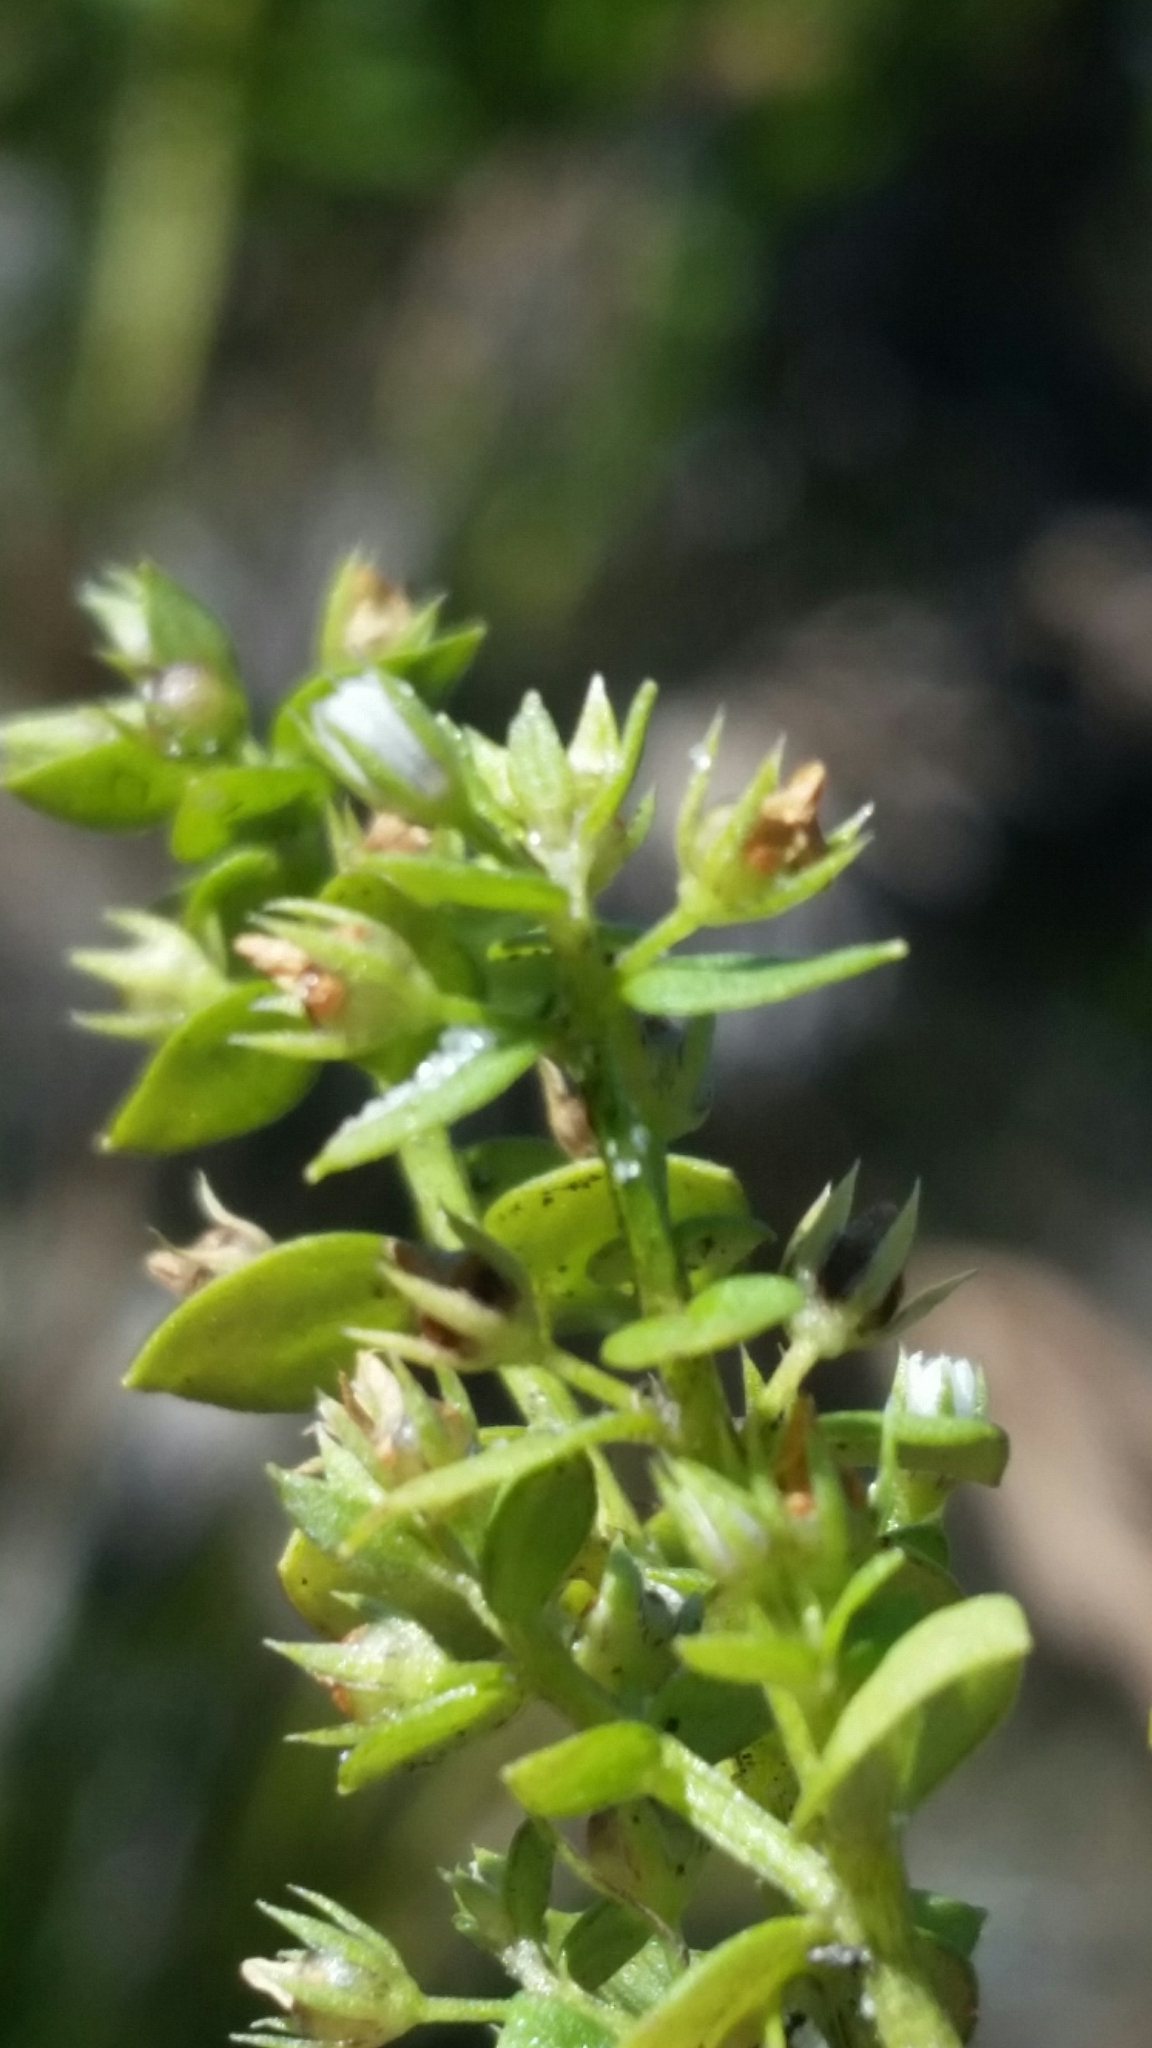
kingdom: Plantae
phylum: Tracheophyta
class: Magnoliopsida
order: Ericales
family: Primulaceae
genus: Lysimachia
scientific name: Lysimachia ovalis
